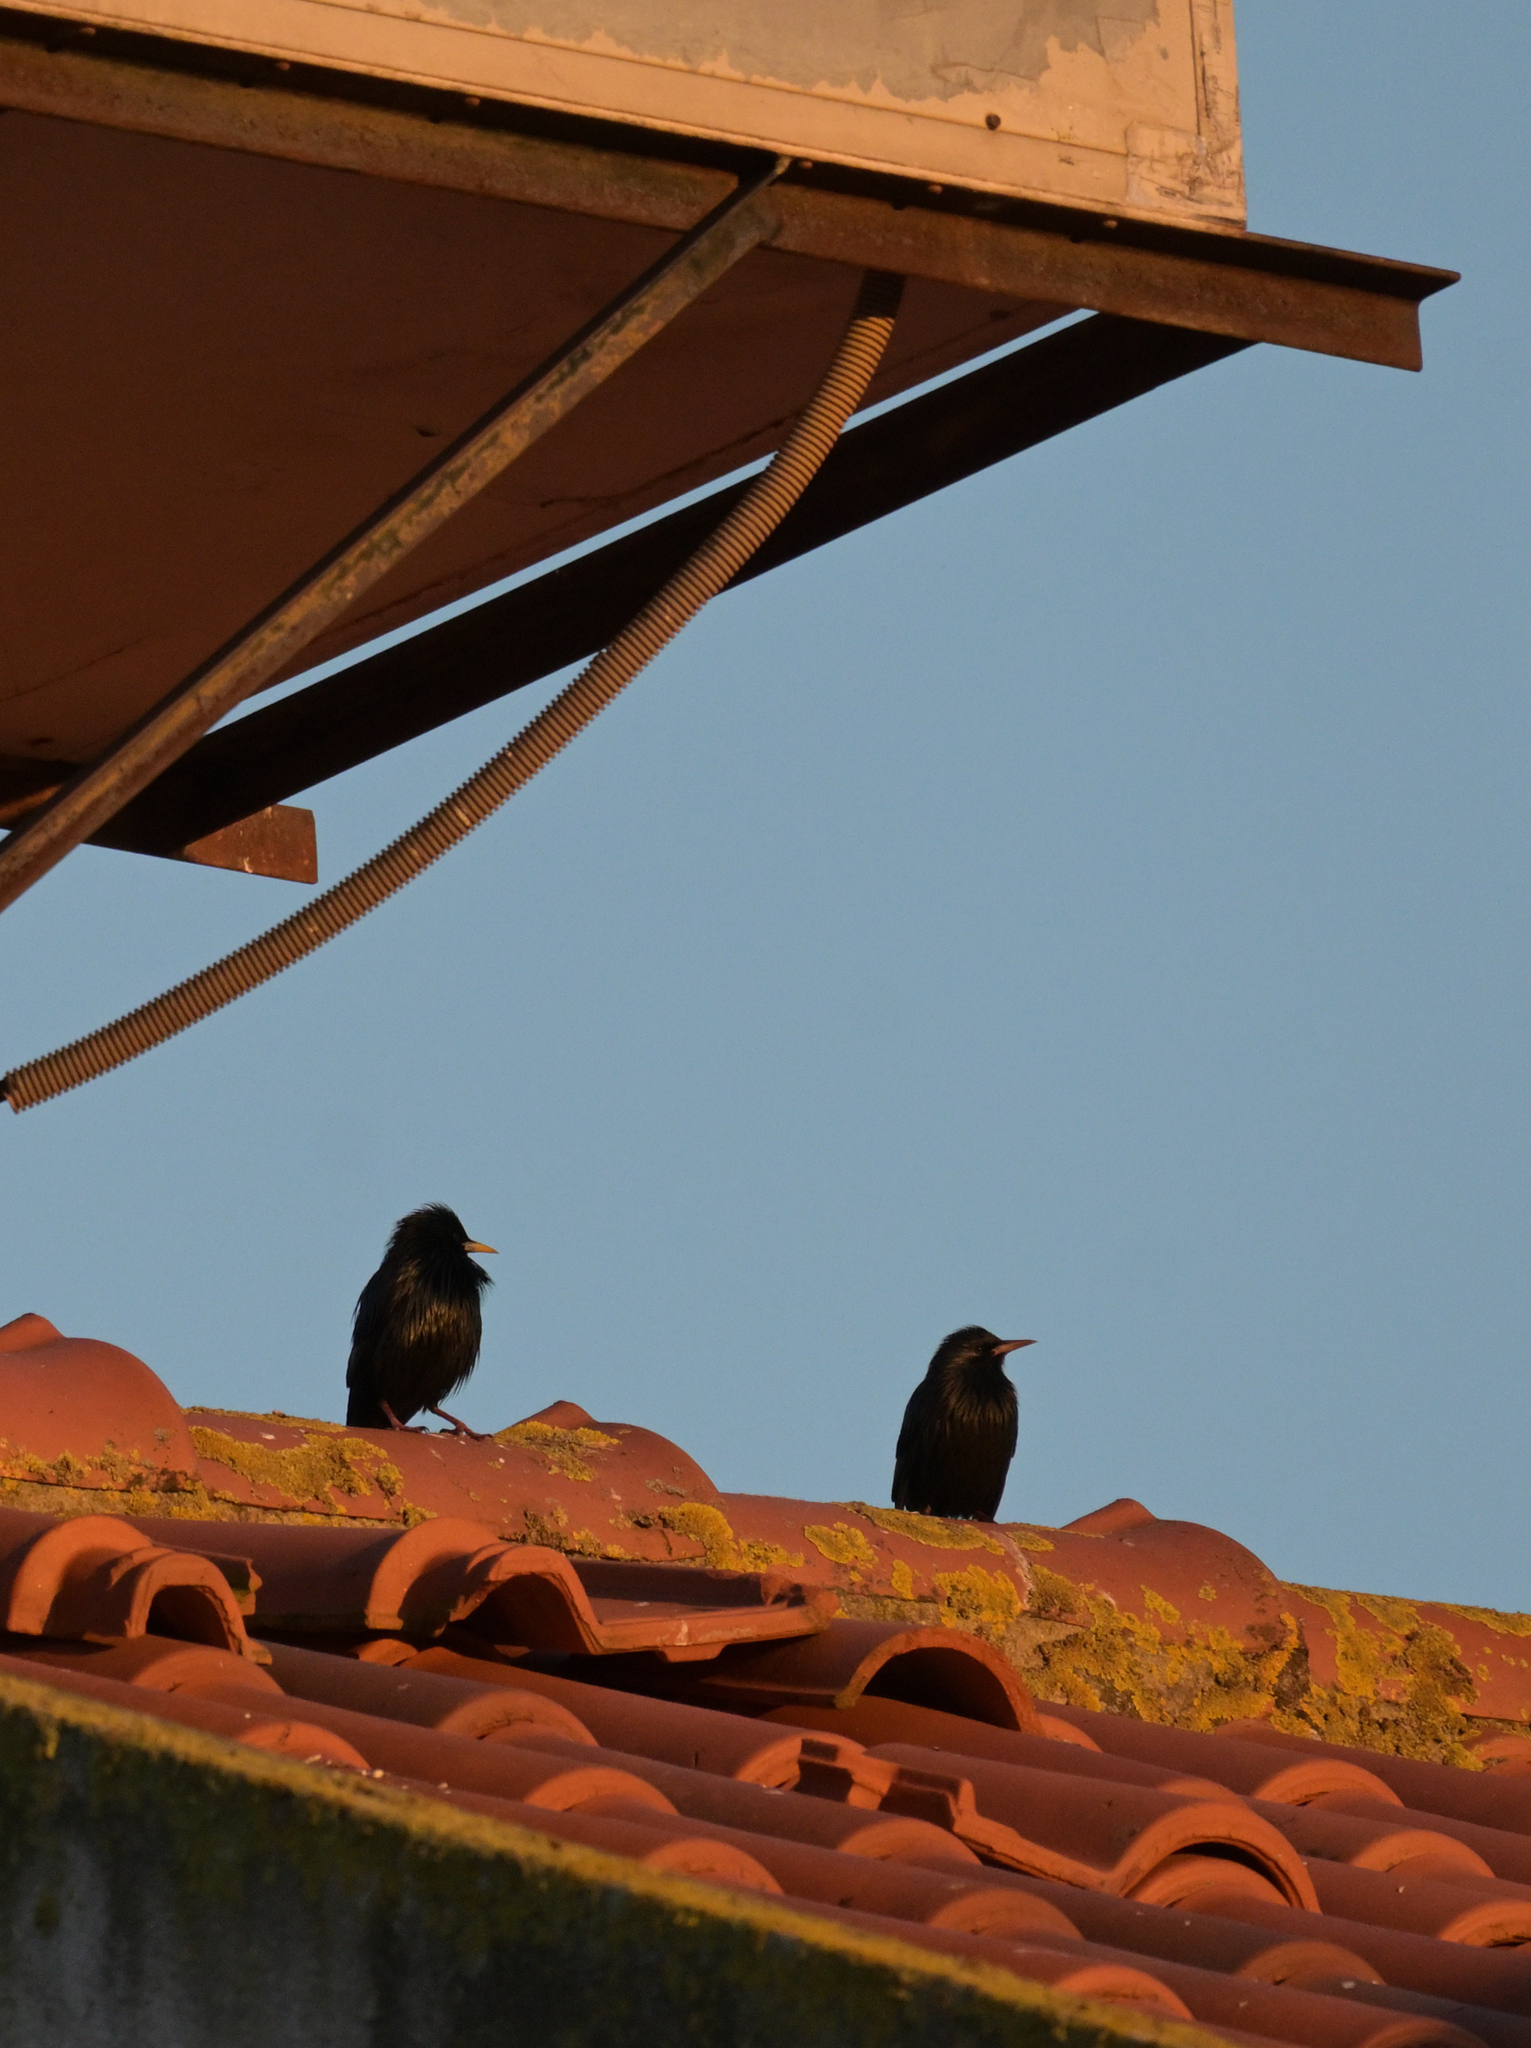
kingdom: Animalia
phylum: Chordata
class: Aves
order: Passeriformes
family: Sturnidae
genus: Sturnus
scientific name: Sturnus unicolor
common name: Spotless starling
